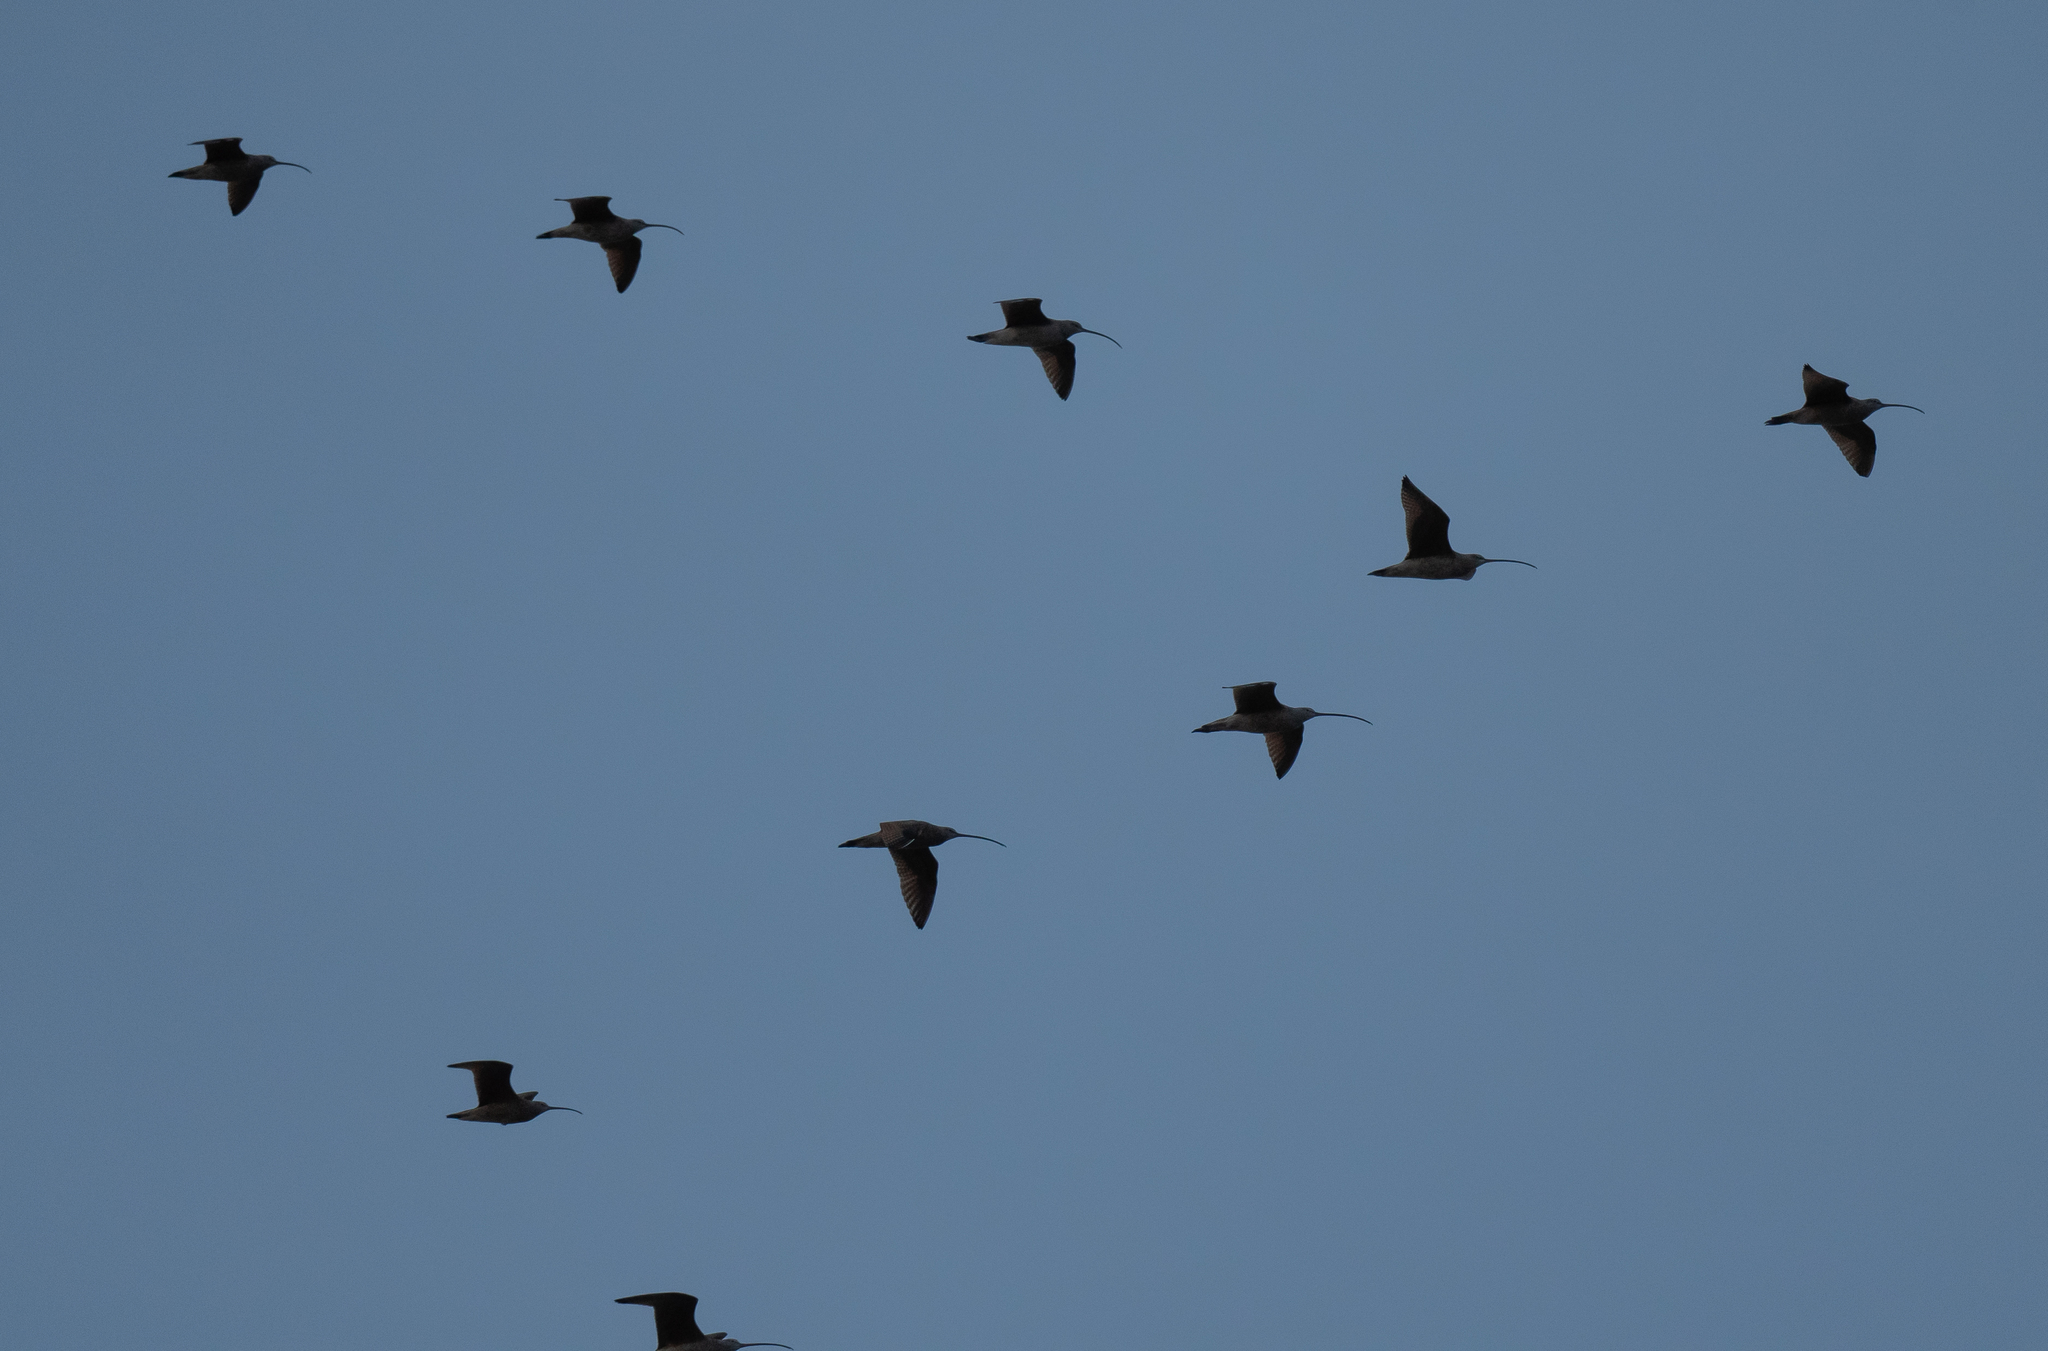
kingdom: Animalia
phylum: Chordata
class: Aves
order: Charadriiformes
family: Scolopacidae
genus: Numenius
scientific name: Numenius americanus
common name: Long-billed curlew
